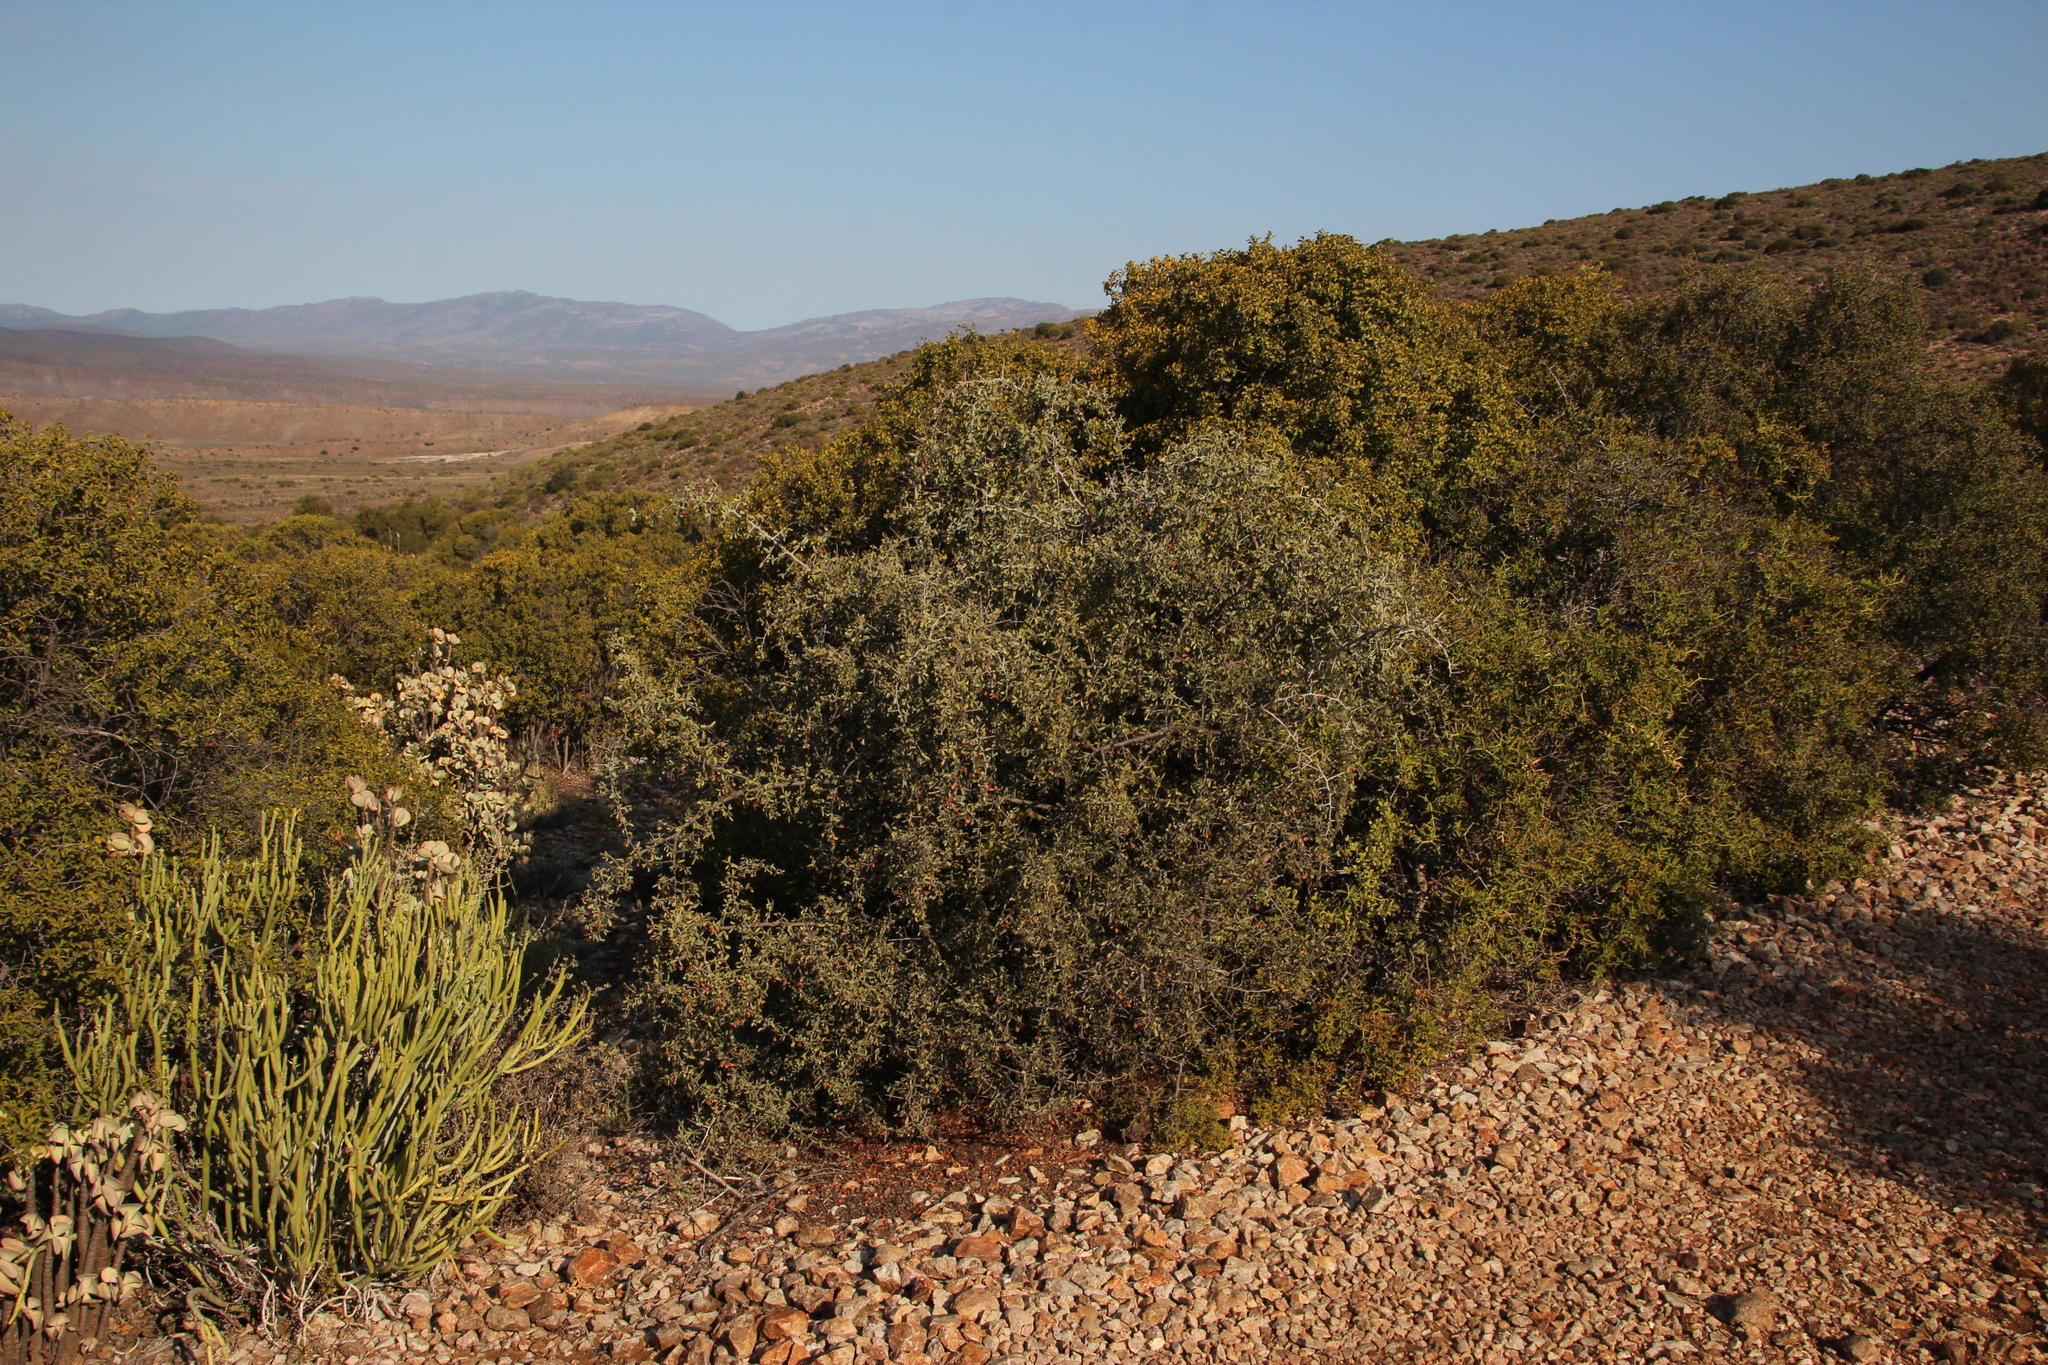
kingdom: Plantae
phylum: Tracheophyta
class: Magnoliopsida
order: Celastrales
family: Celastraceae
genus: Gloveria
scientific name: Gloveria integrifolia
